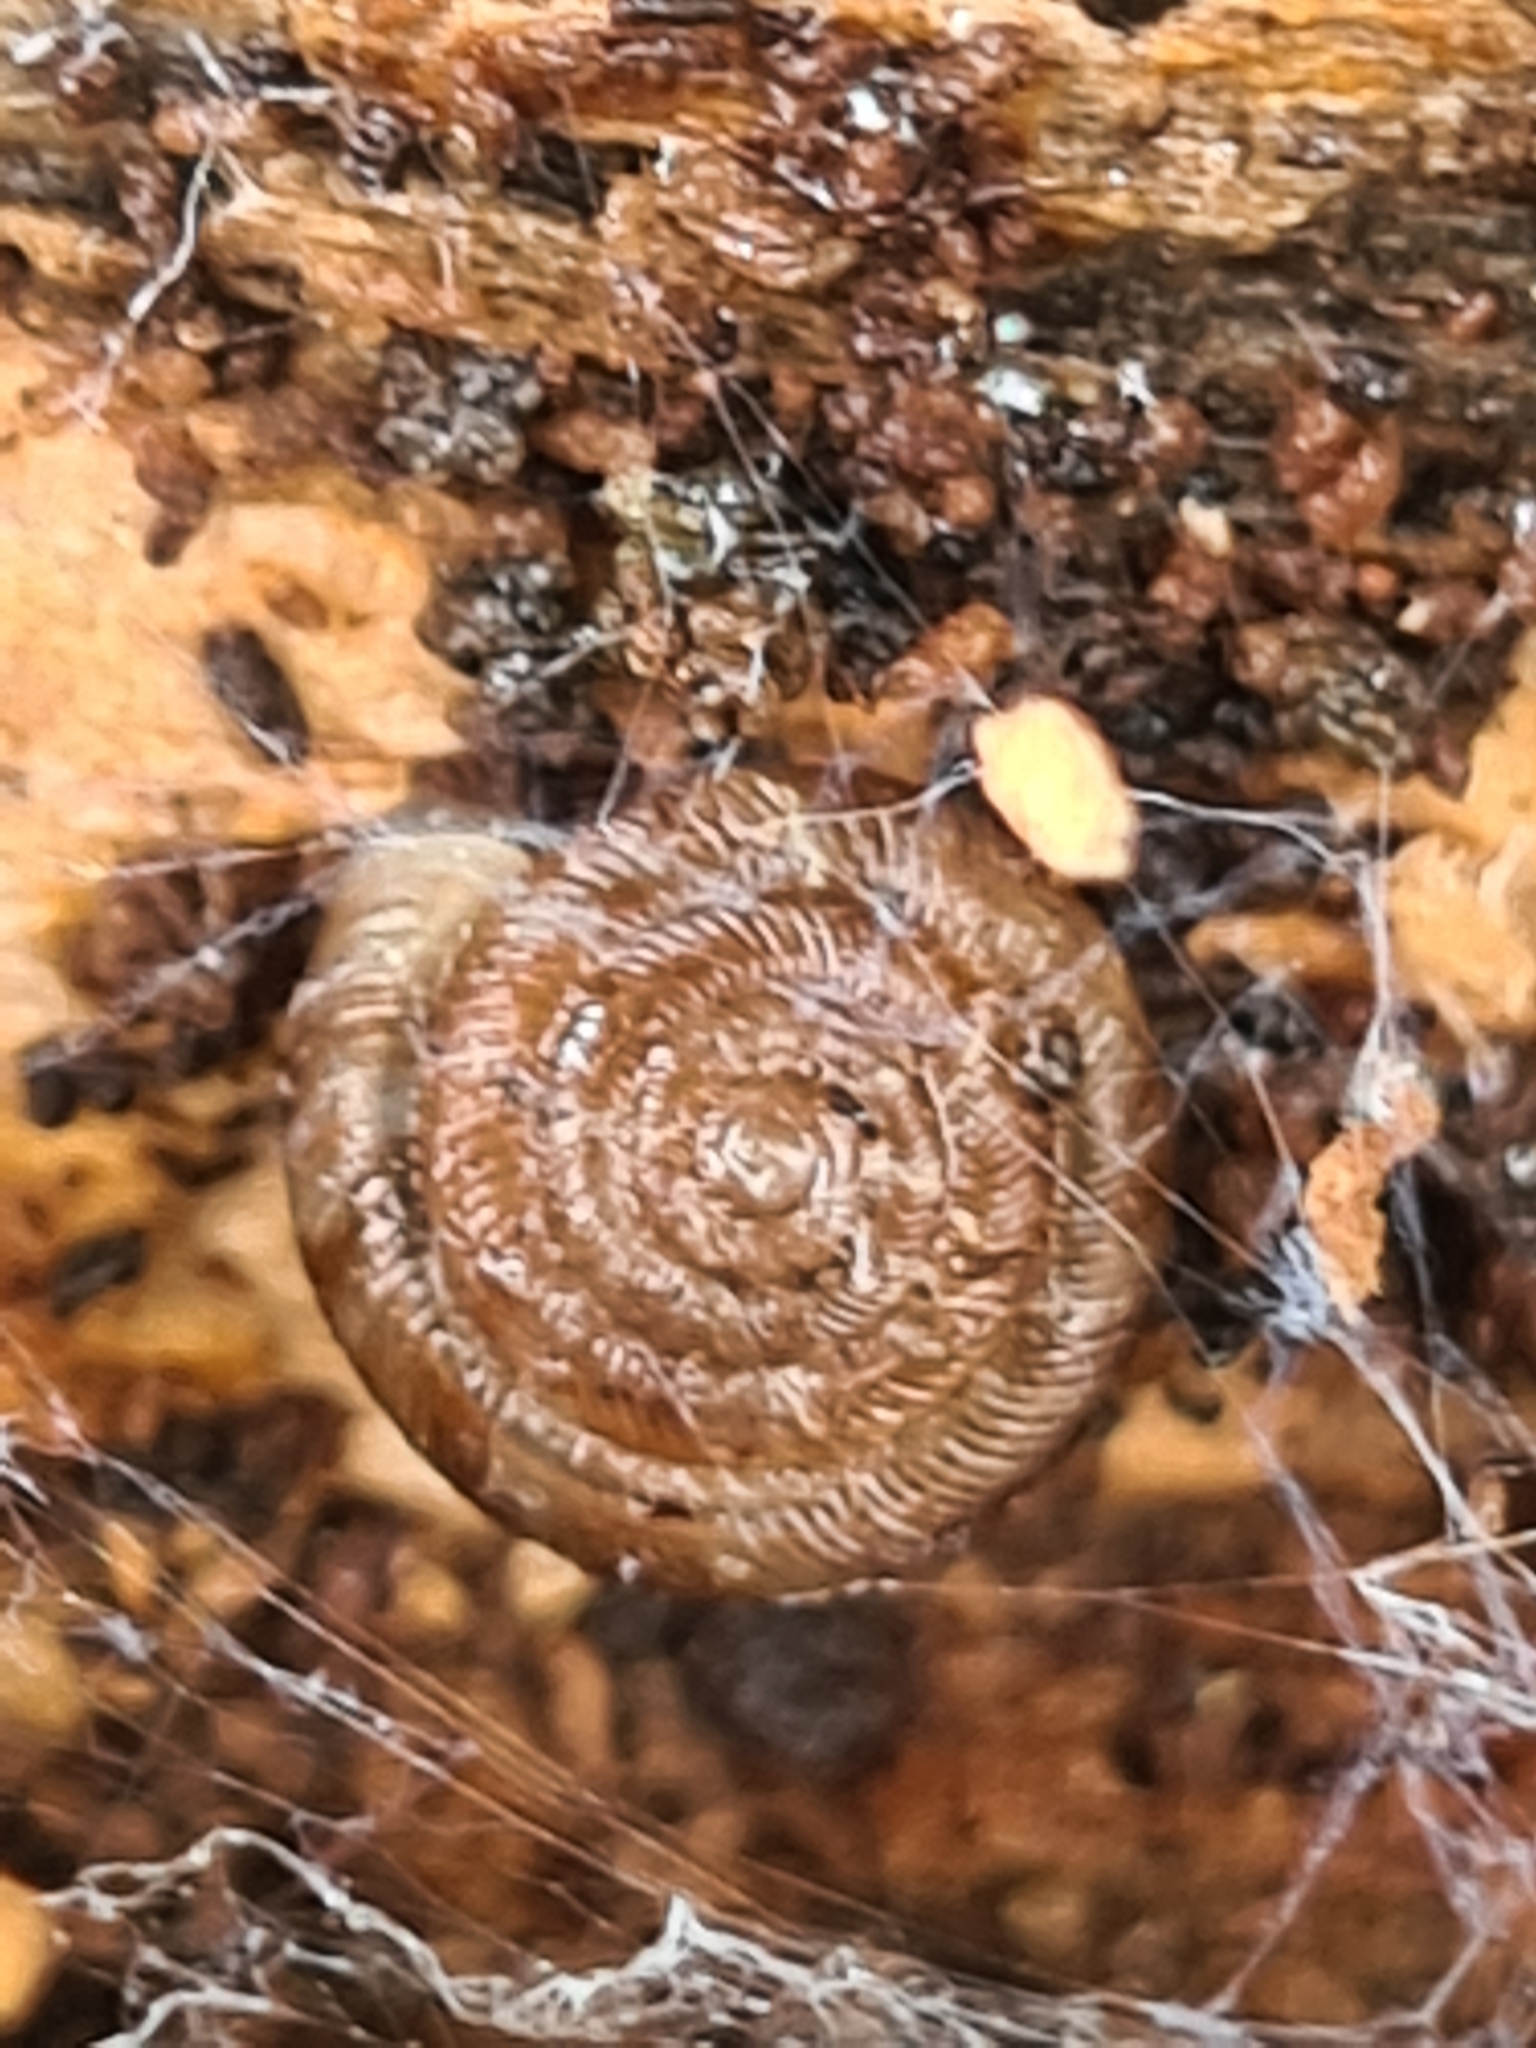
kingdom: Animalia
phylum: Mollusca
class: Gastropoda
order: Stylommatophora
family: Discidae
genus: Discus
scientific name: Discus rotundatus
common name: Rounded snail
